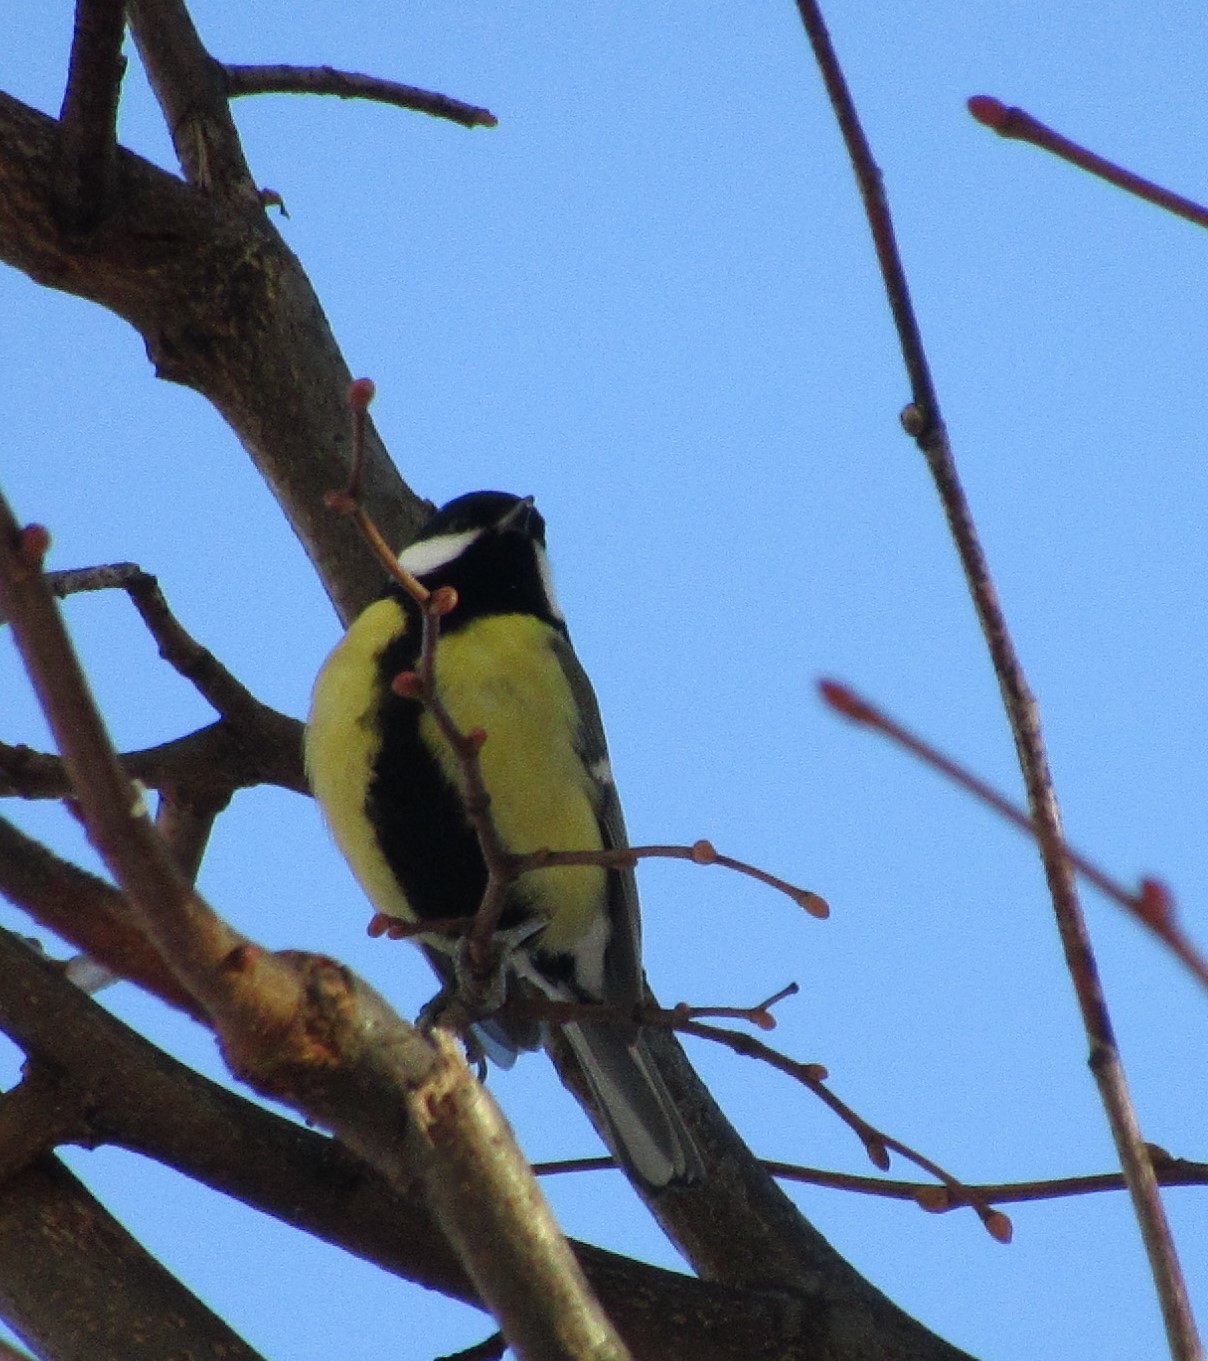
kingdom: Animalia
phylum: Chordata
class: Aves
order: Passeriformes
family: Paridae
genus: Parus
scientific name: Parus major
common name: Great tit
